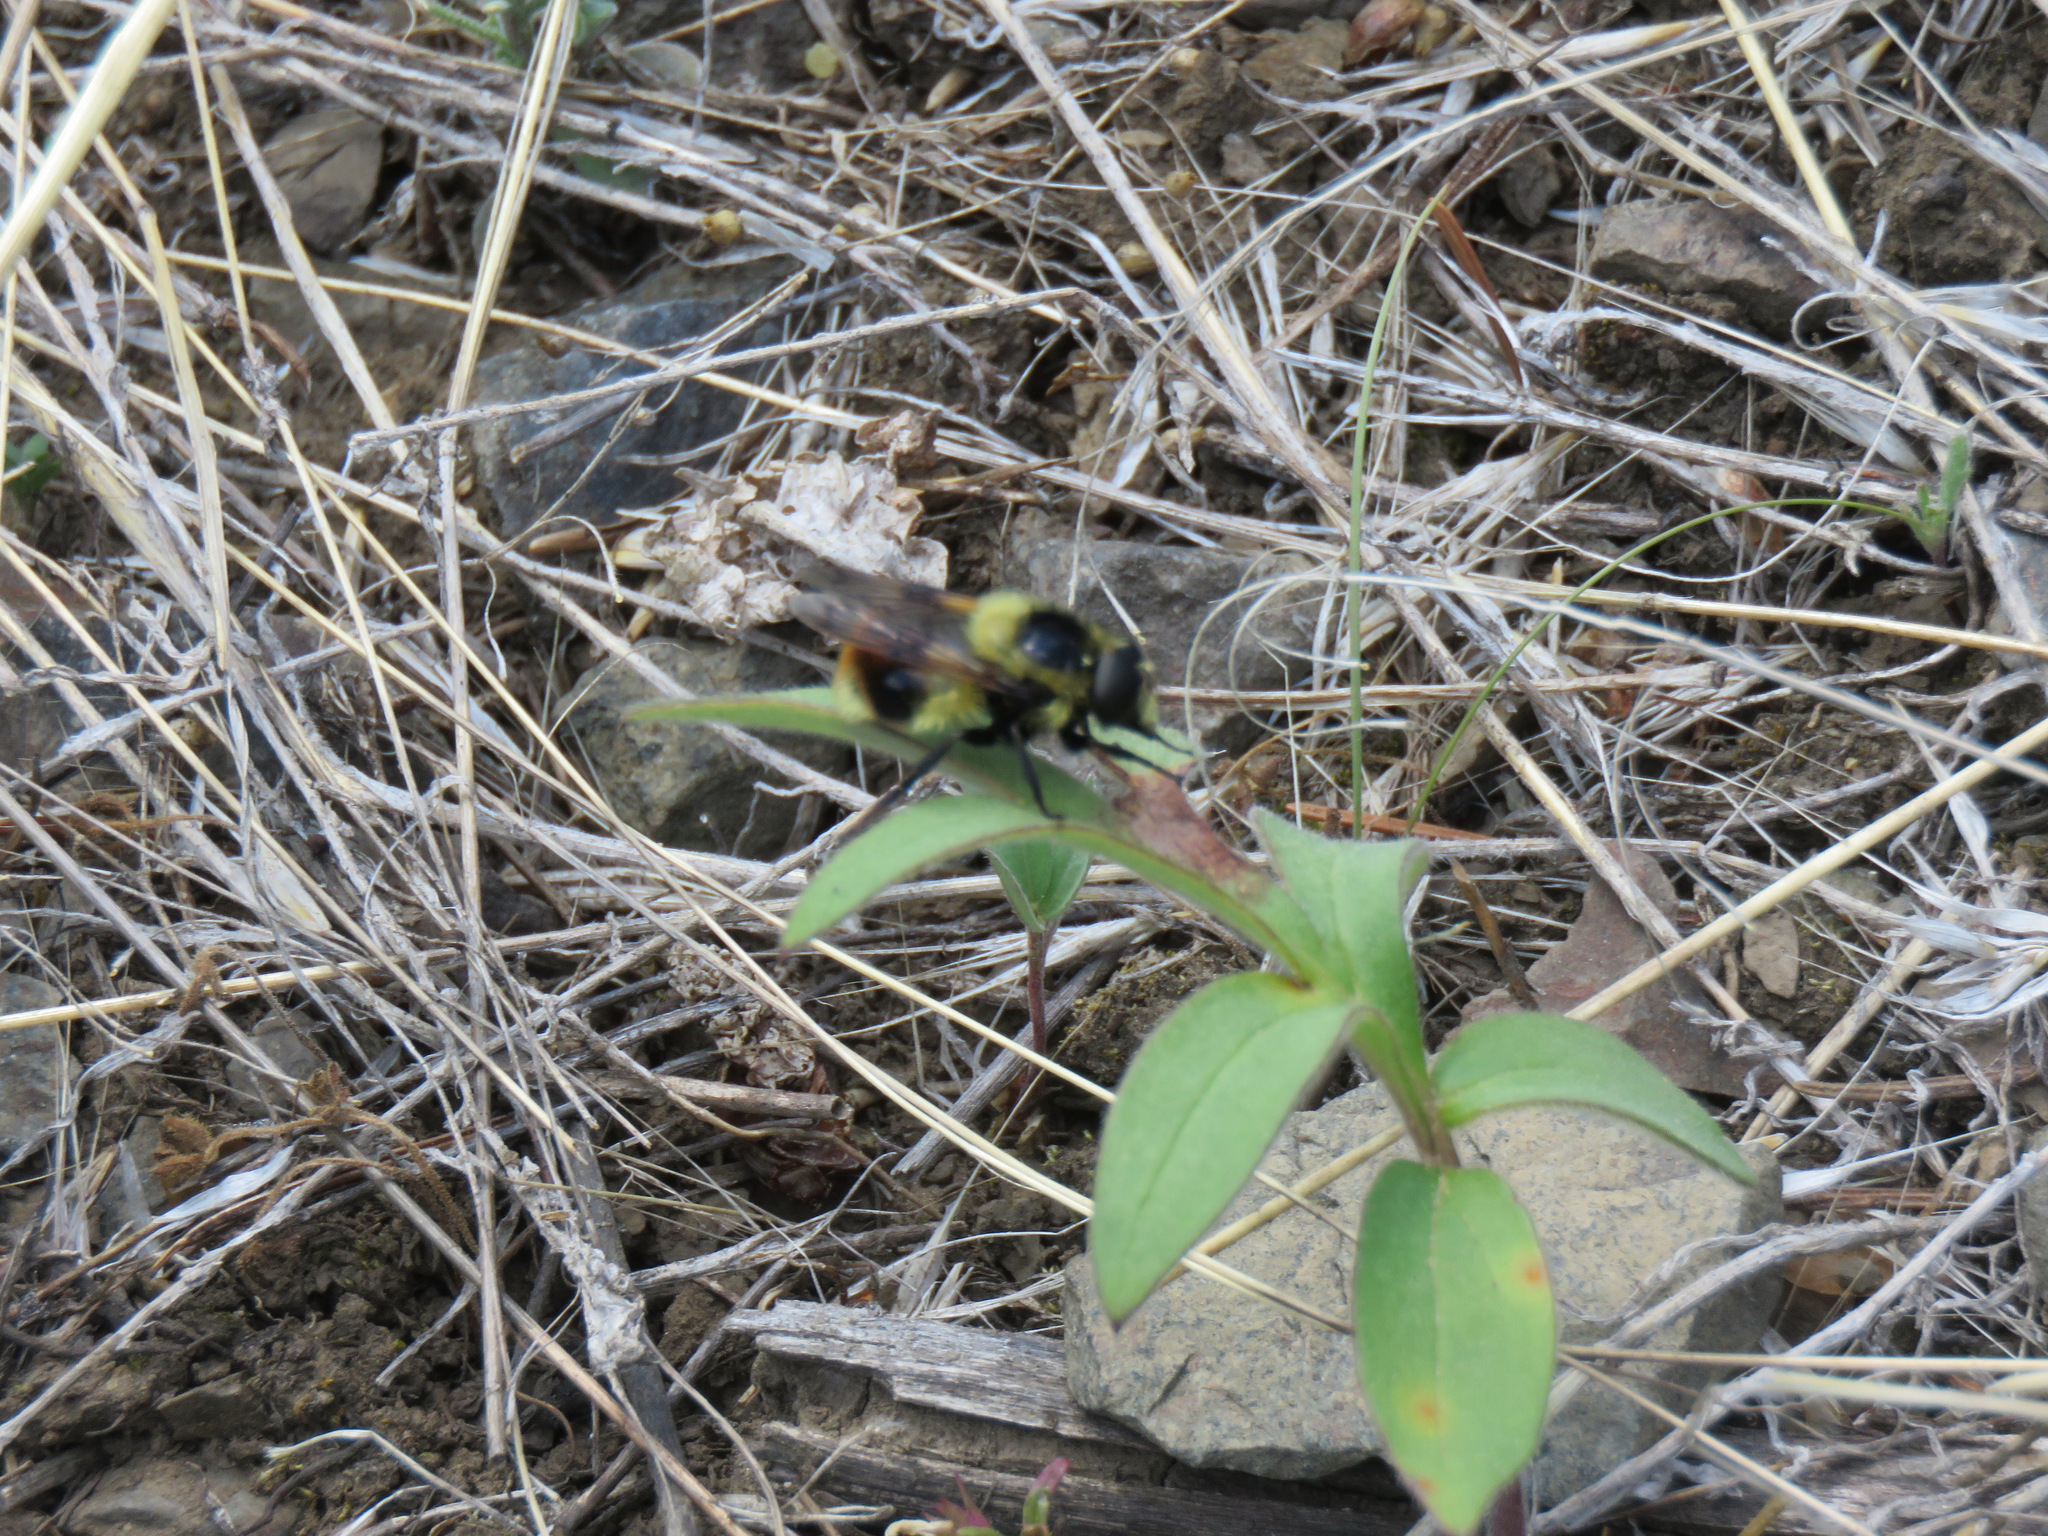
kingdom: Animalia
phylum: Arthropoda
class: Insecta
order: Diptera
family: Syrphidae
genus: Volucella
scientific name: Volucella facialis
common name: Yellow-faced swiftwing
